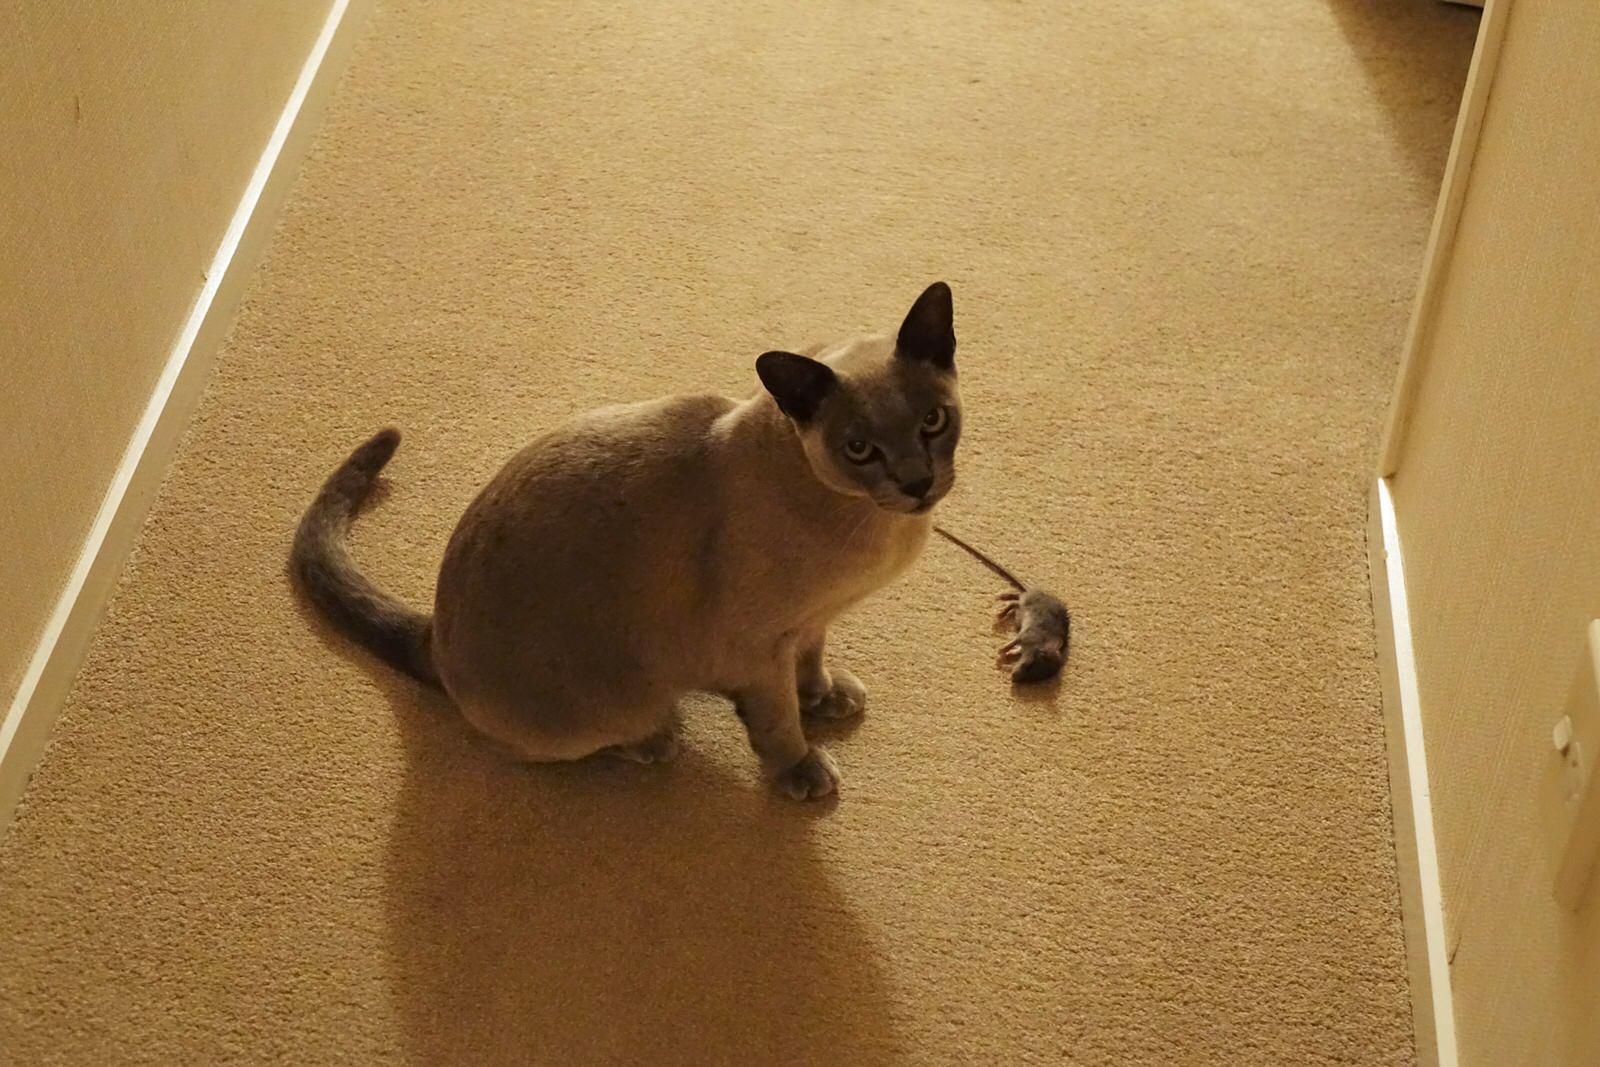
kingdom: Animalia
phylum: Chordata
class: Mammalia
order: Rodentia
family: Muridae
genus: Rattus
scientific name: Rattus rattus
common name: Black rat
